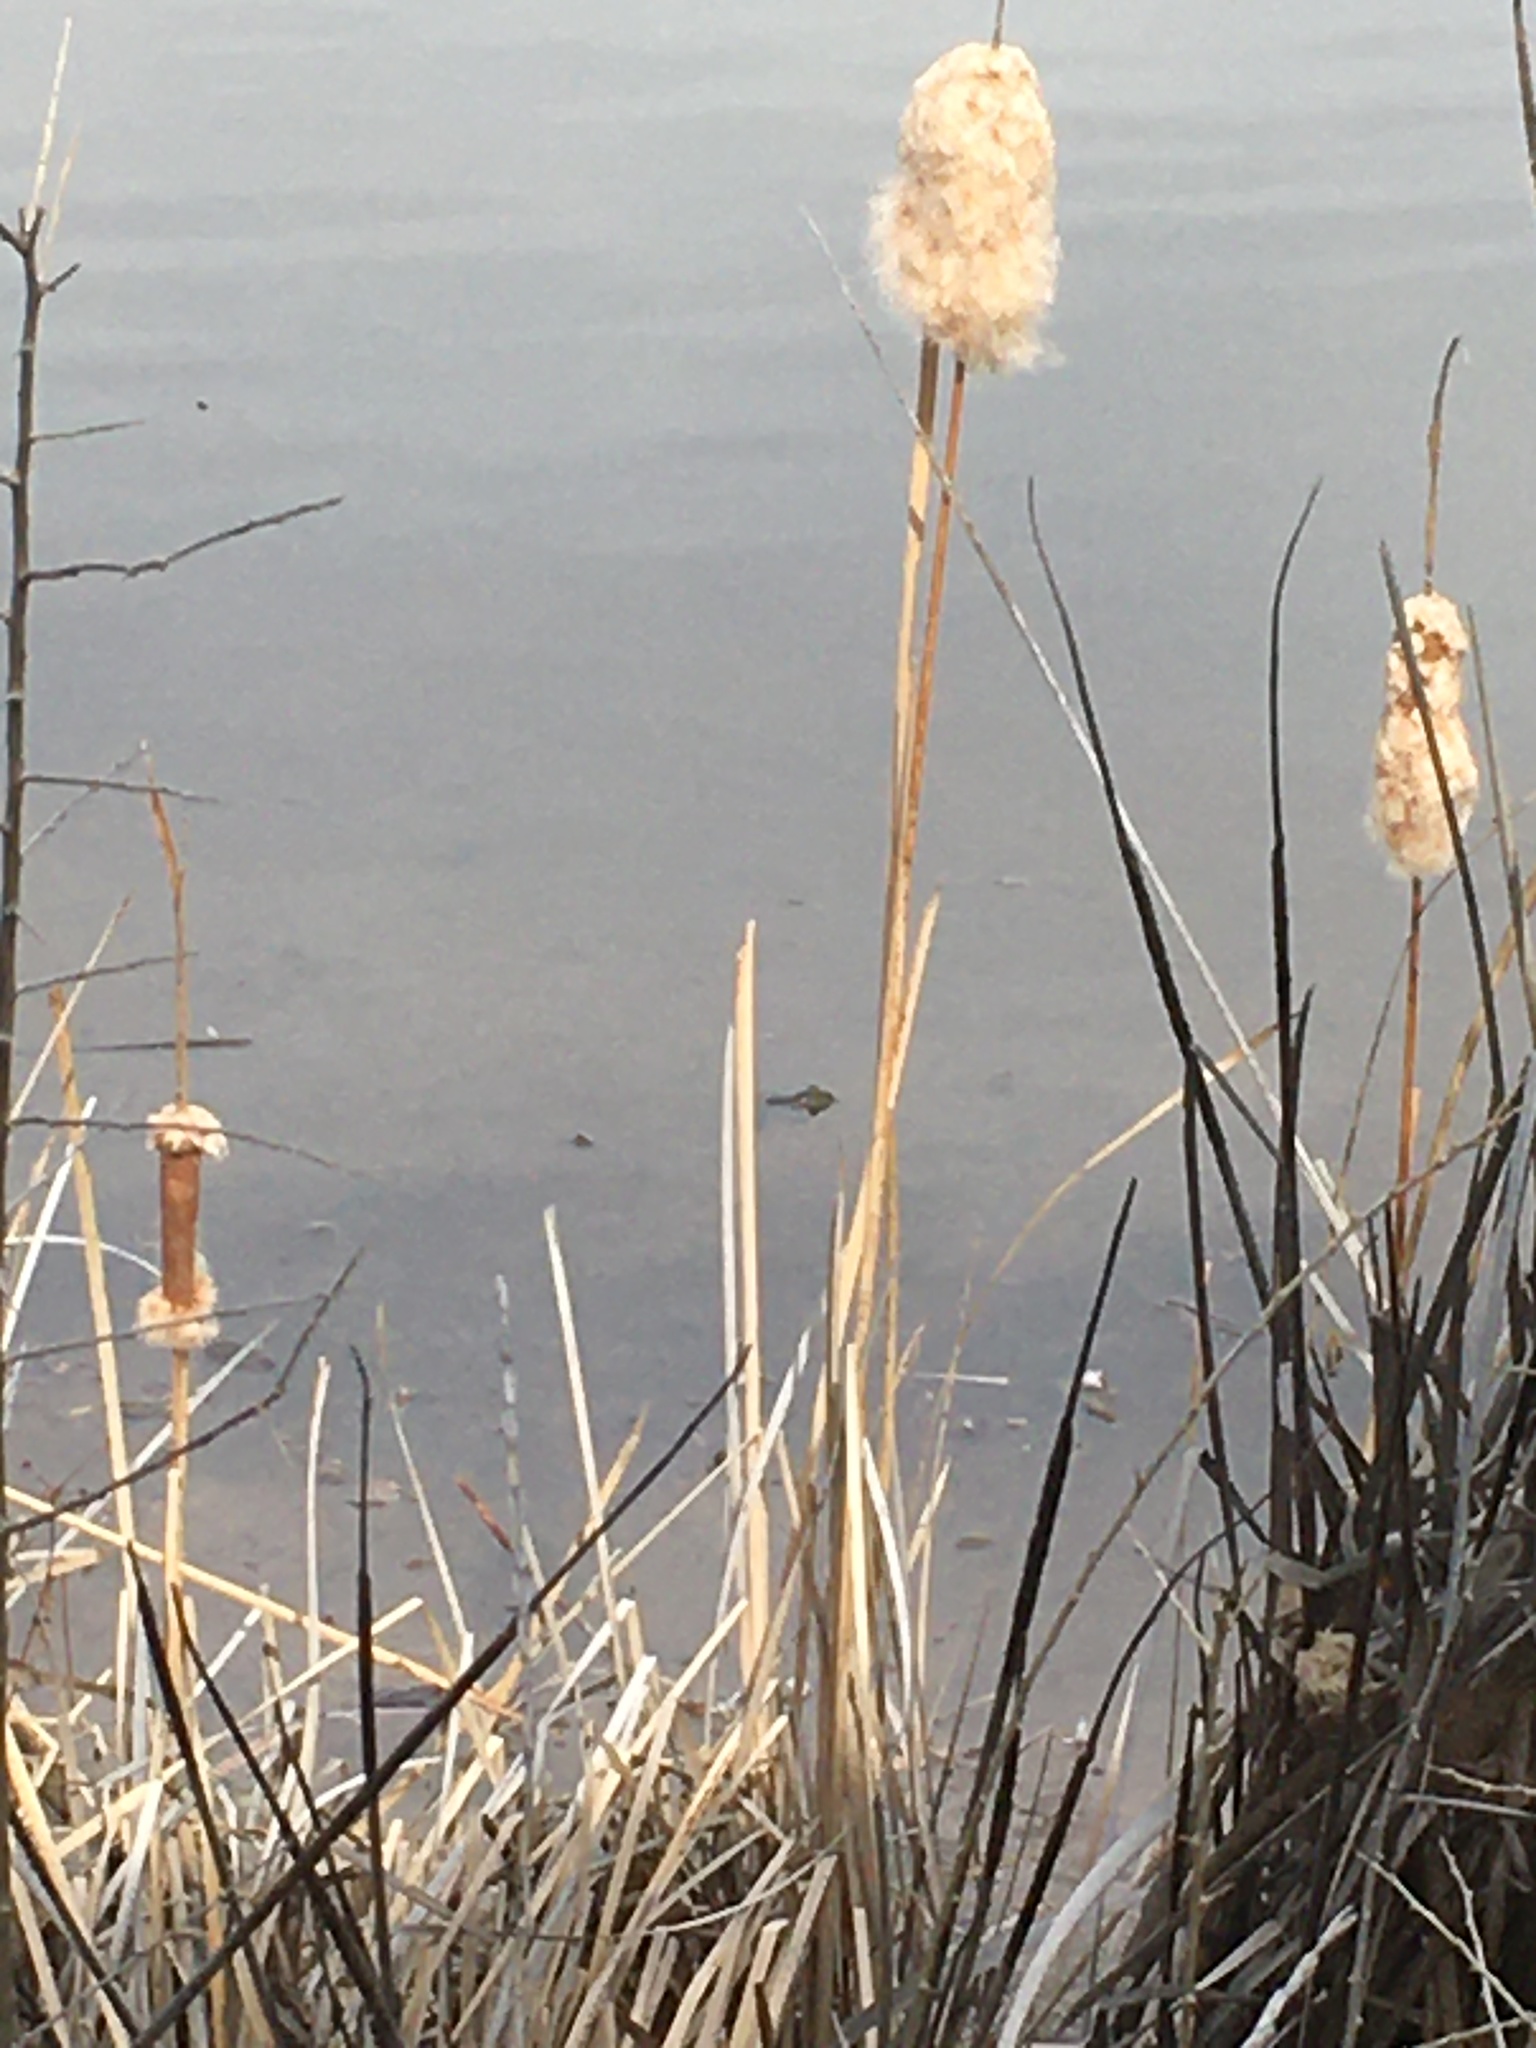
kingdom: Animalia
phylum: Chordata
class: Amphibia
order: Anura
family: Ranidae
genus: Lithobates
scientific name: Lithobates catesbeianus
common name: American bullfrog
